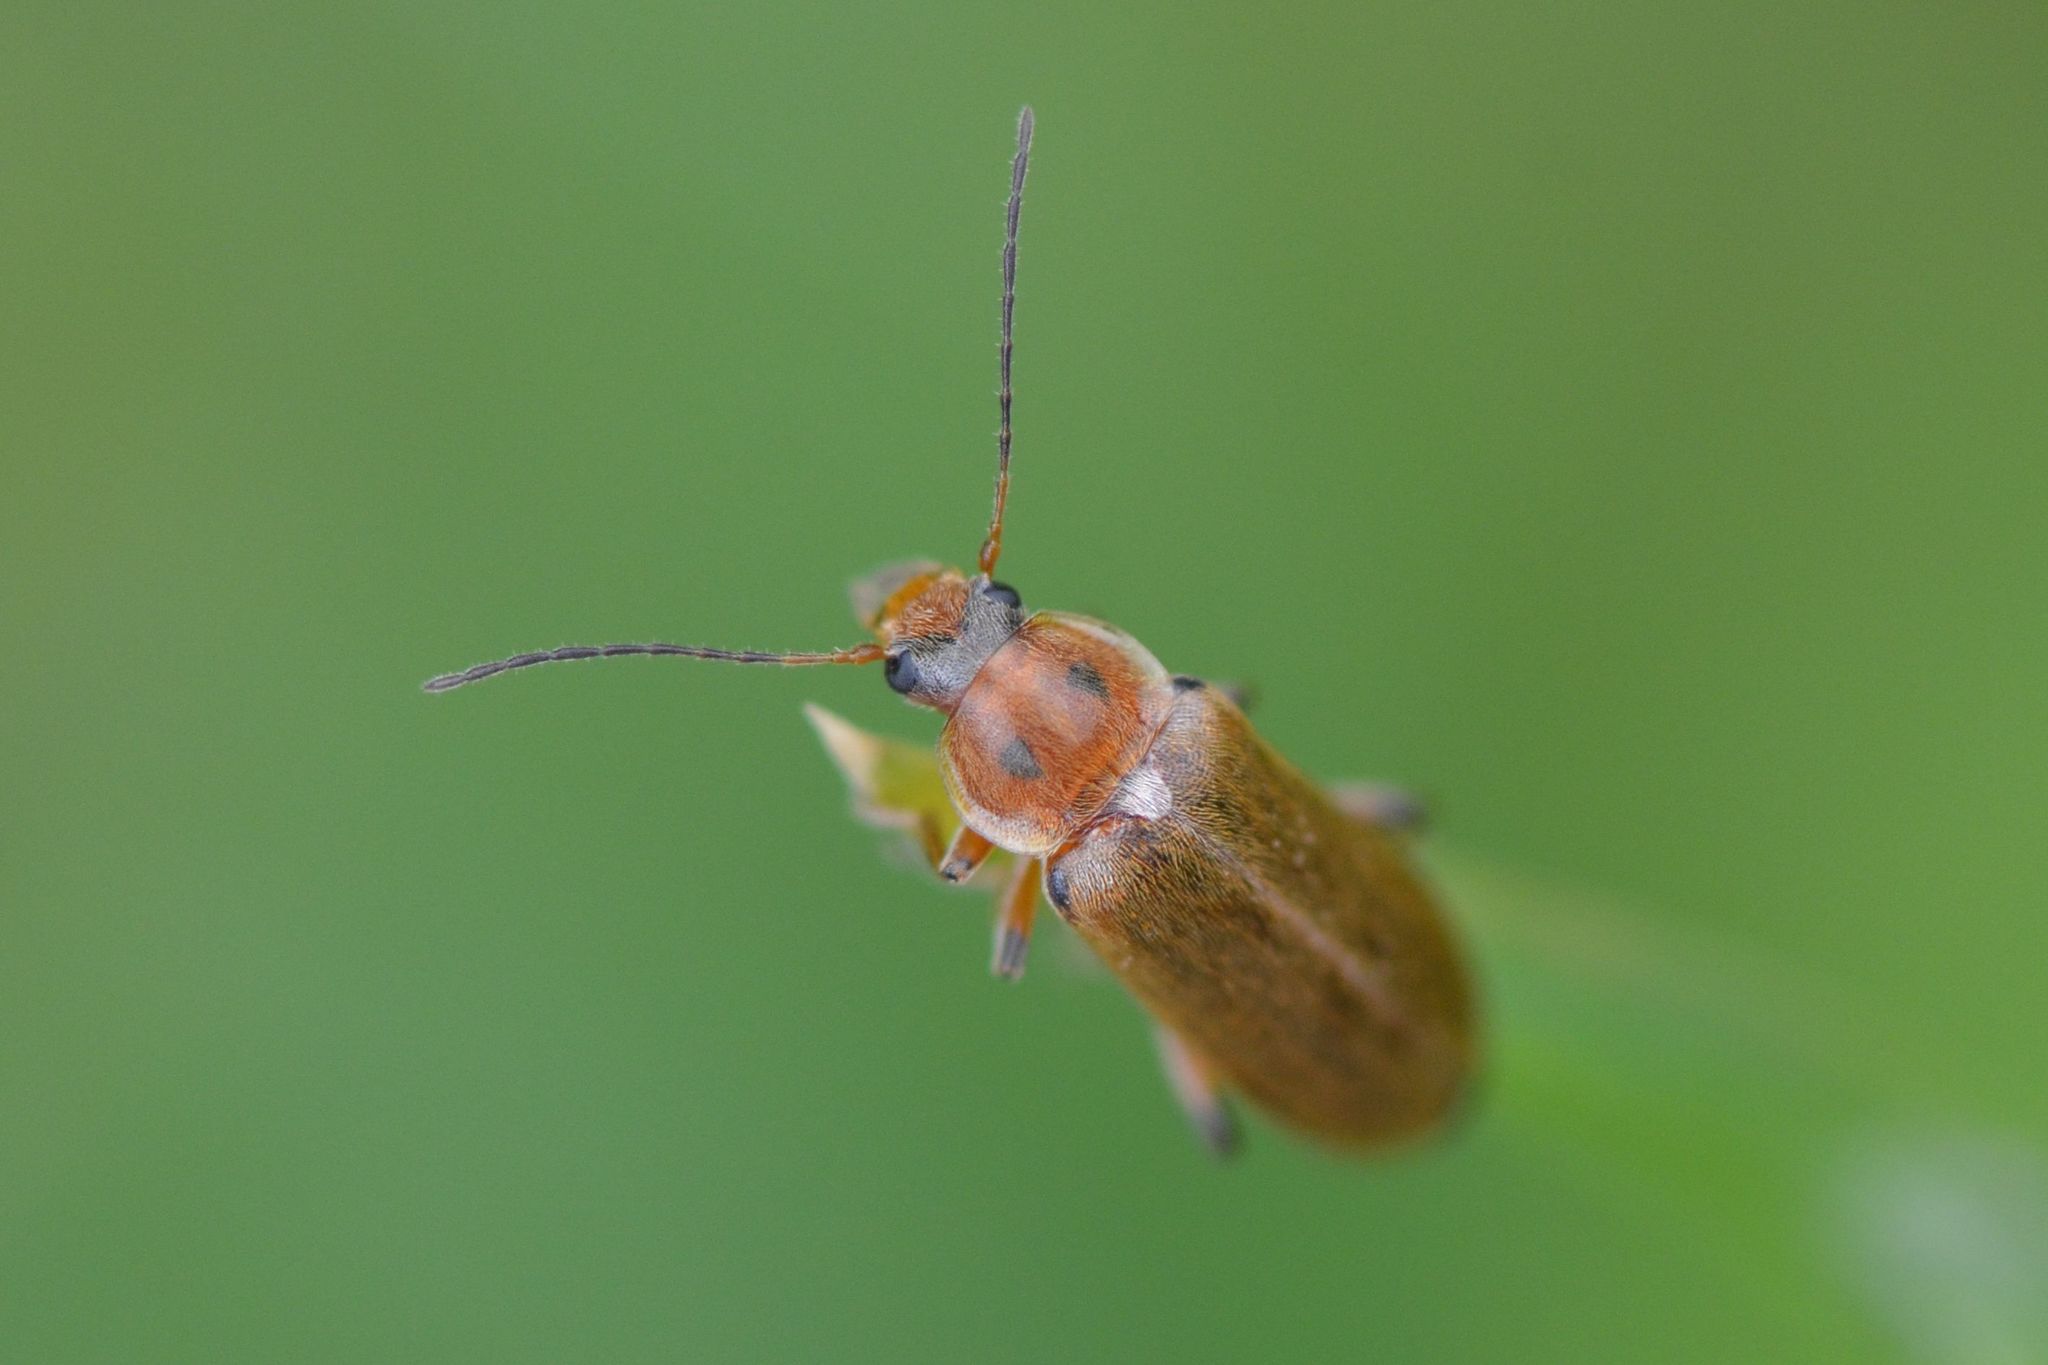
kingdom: Animalia
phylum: Arthropoda
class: Insecta
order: Coleoptera
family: Melandryidae
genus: Osphya
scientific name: Osphya bipunctata
